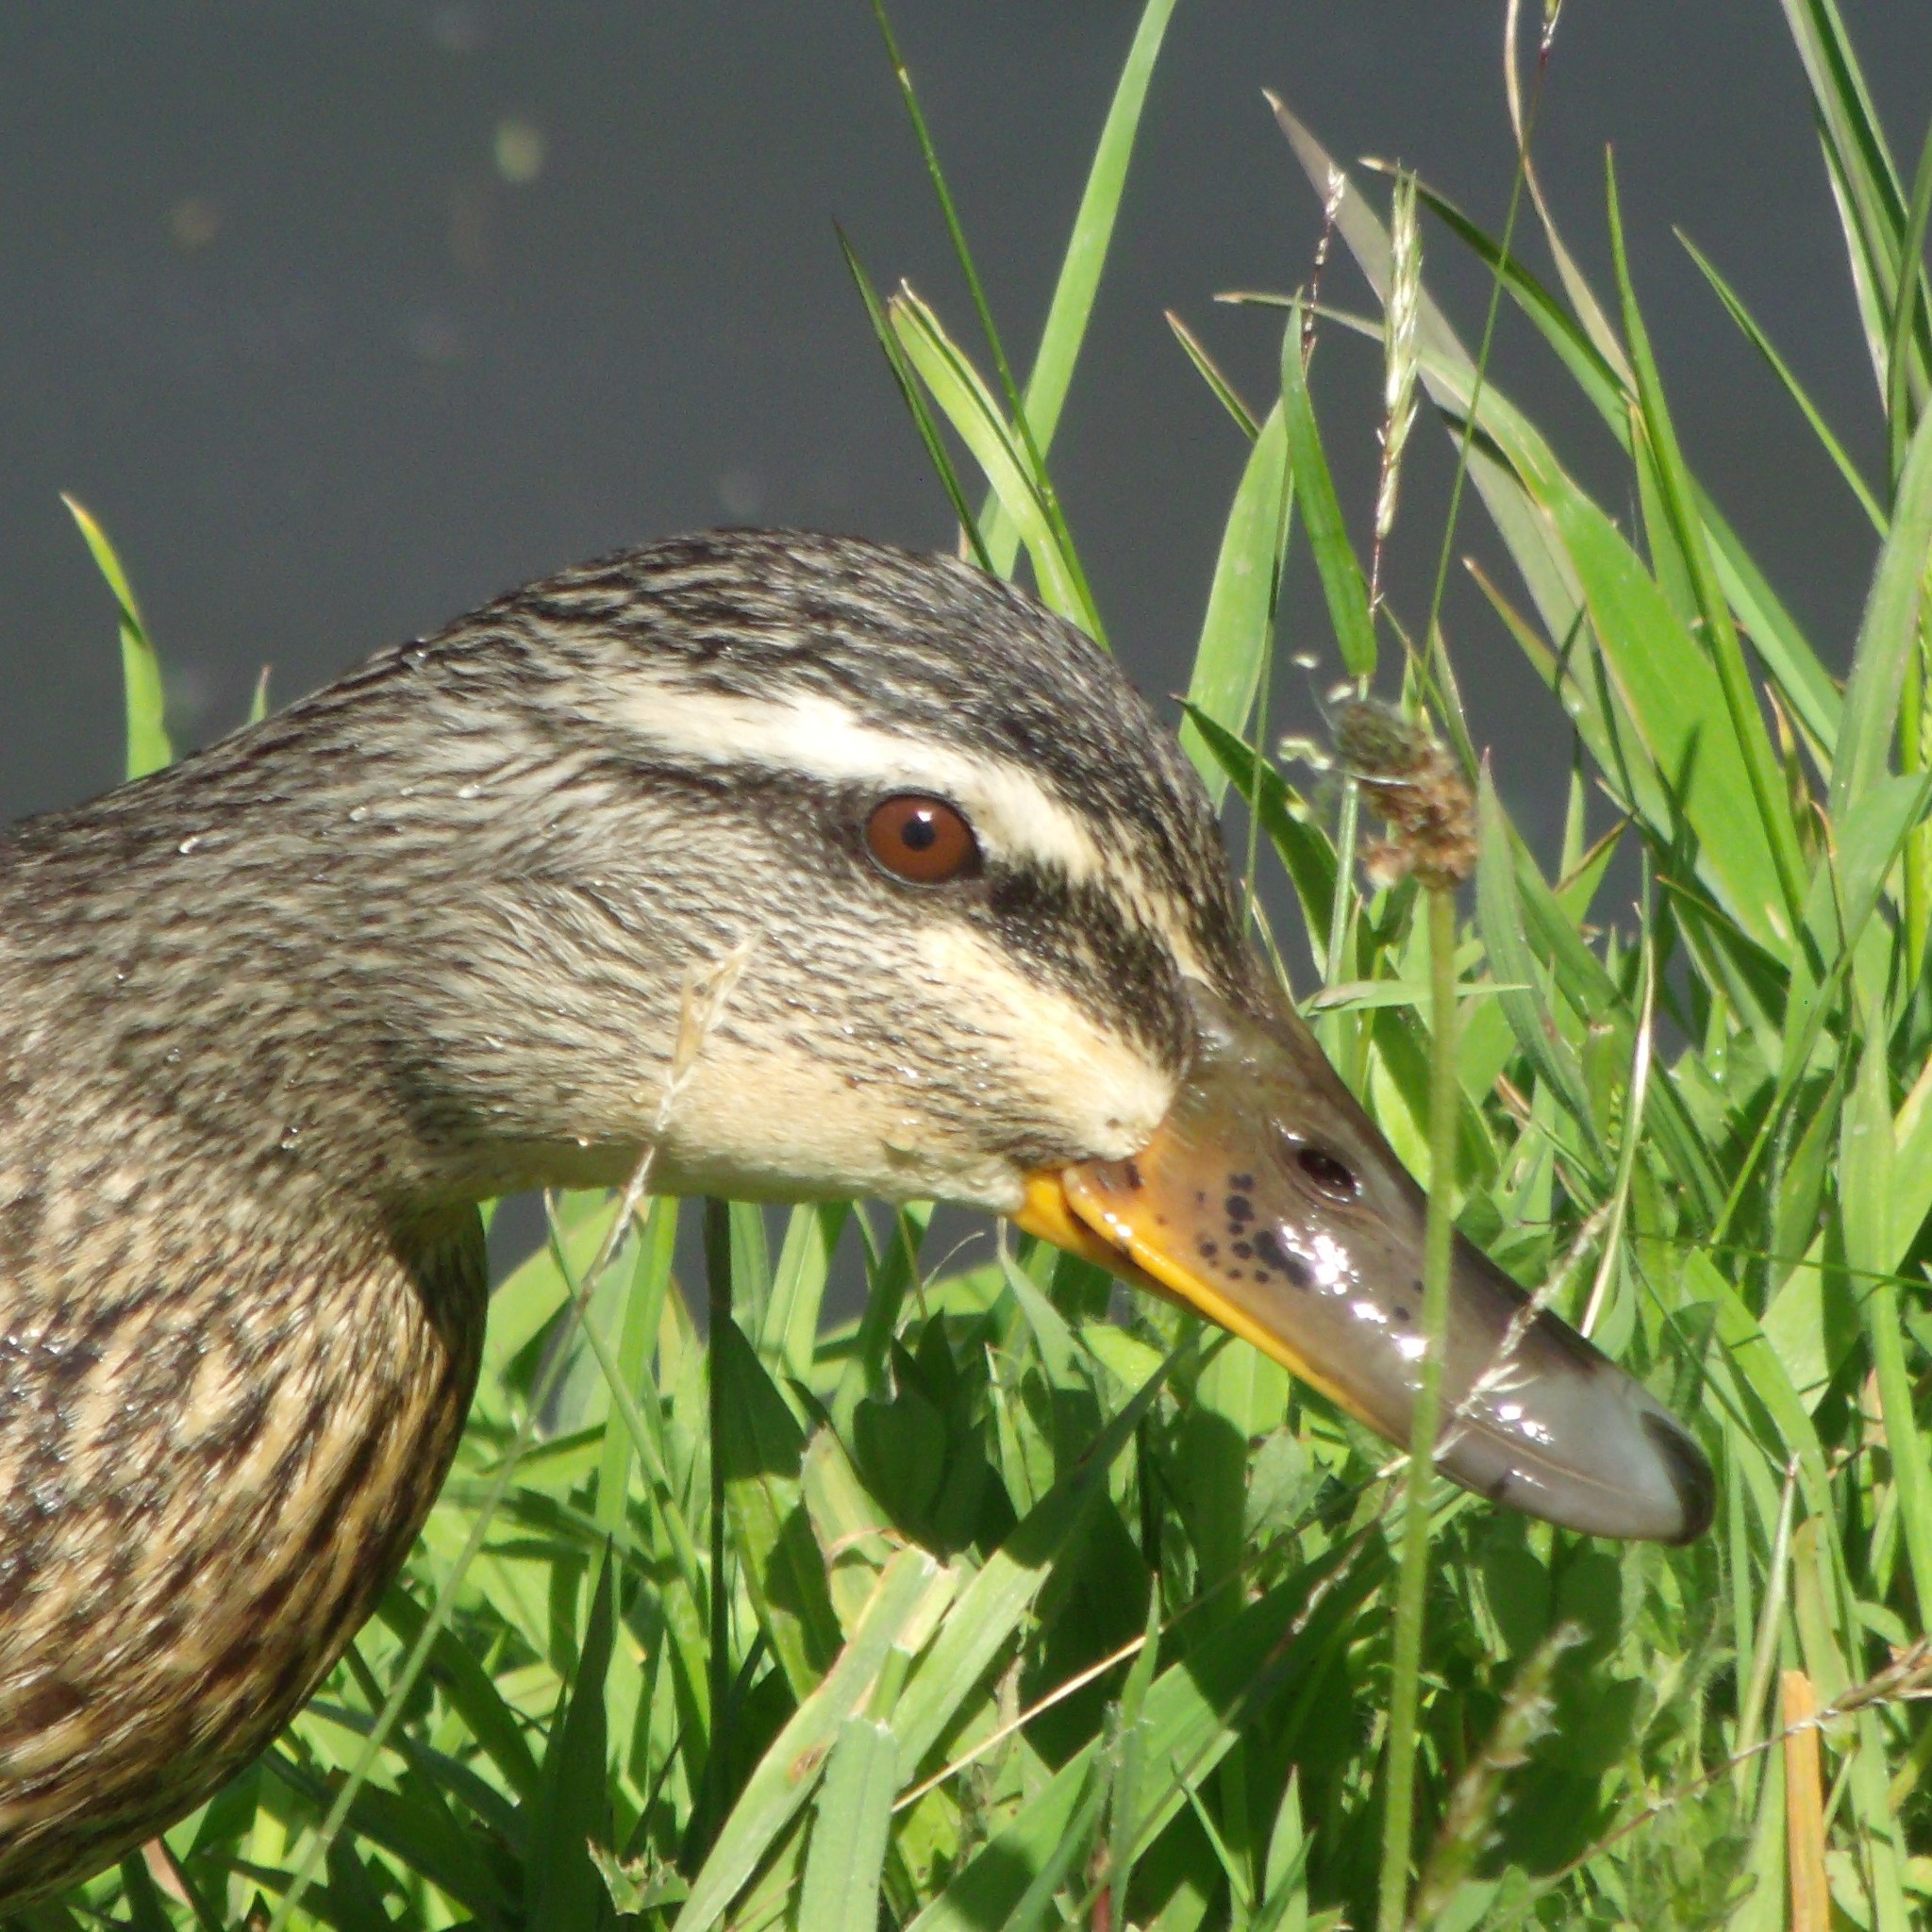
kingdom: Animalia
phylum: Chordata
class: Aves
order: Anseriformes
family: Anatidae
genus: Anas
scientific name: Anas
